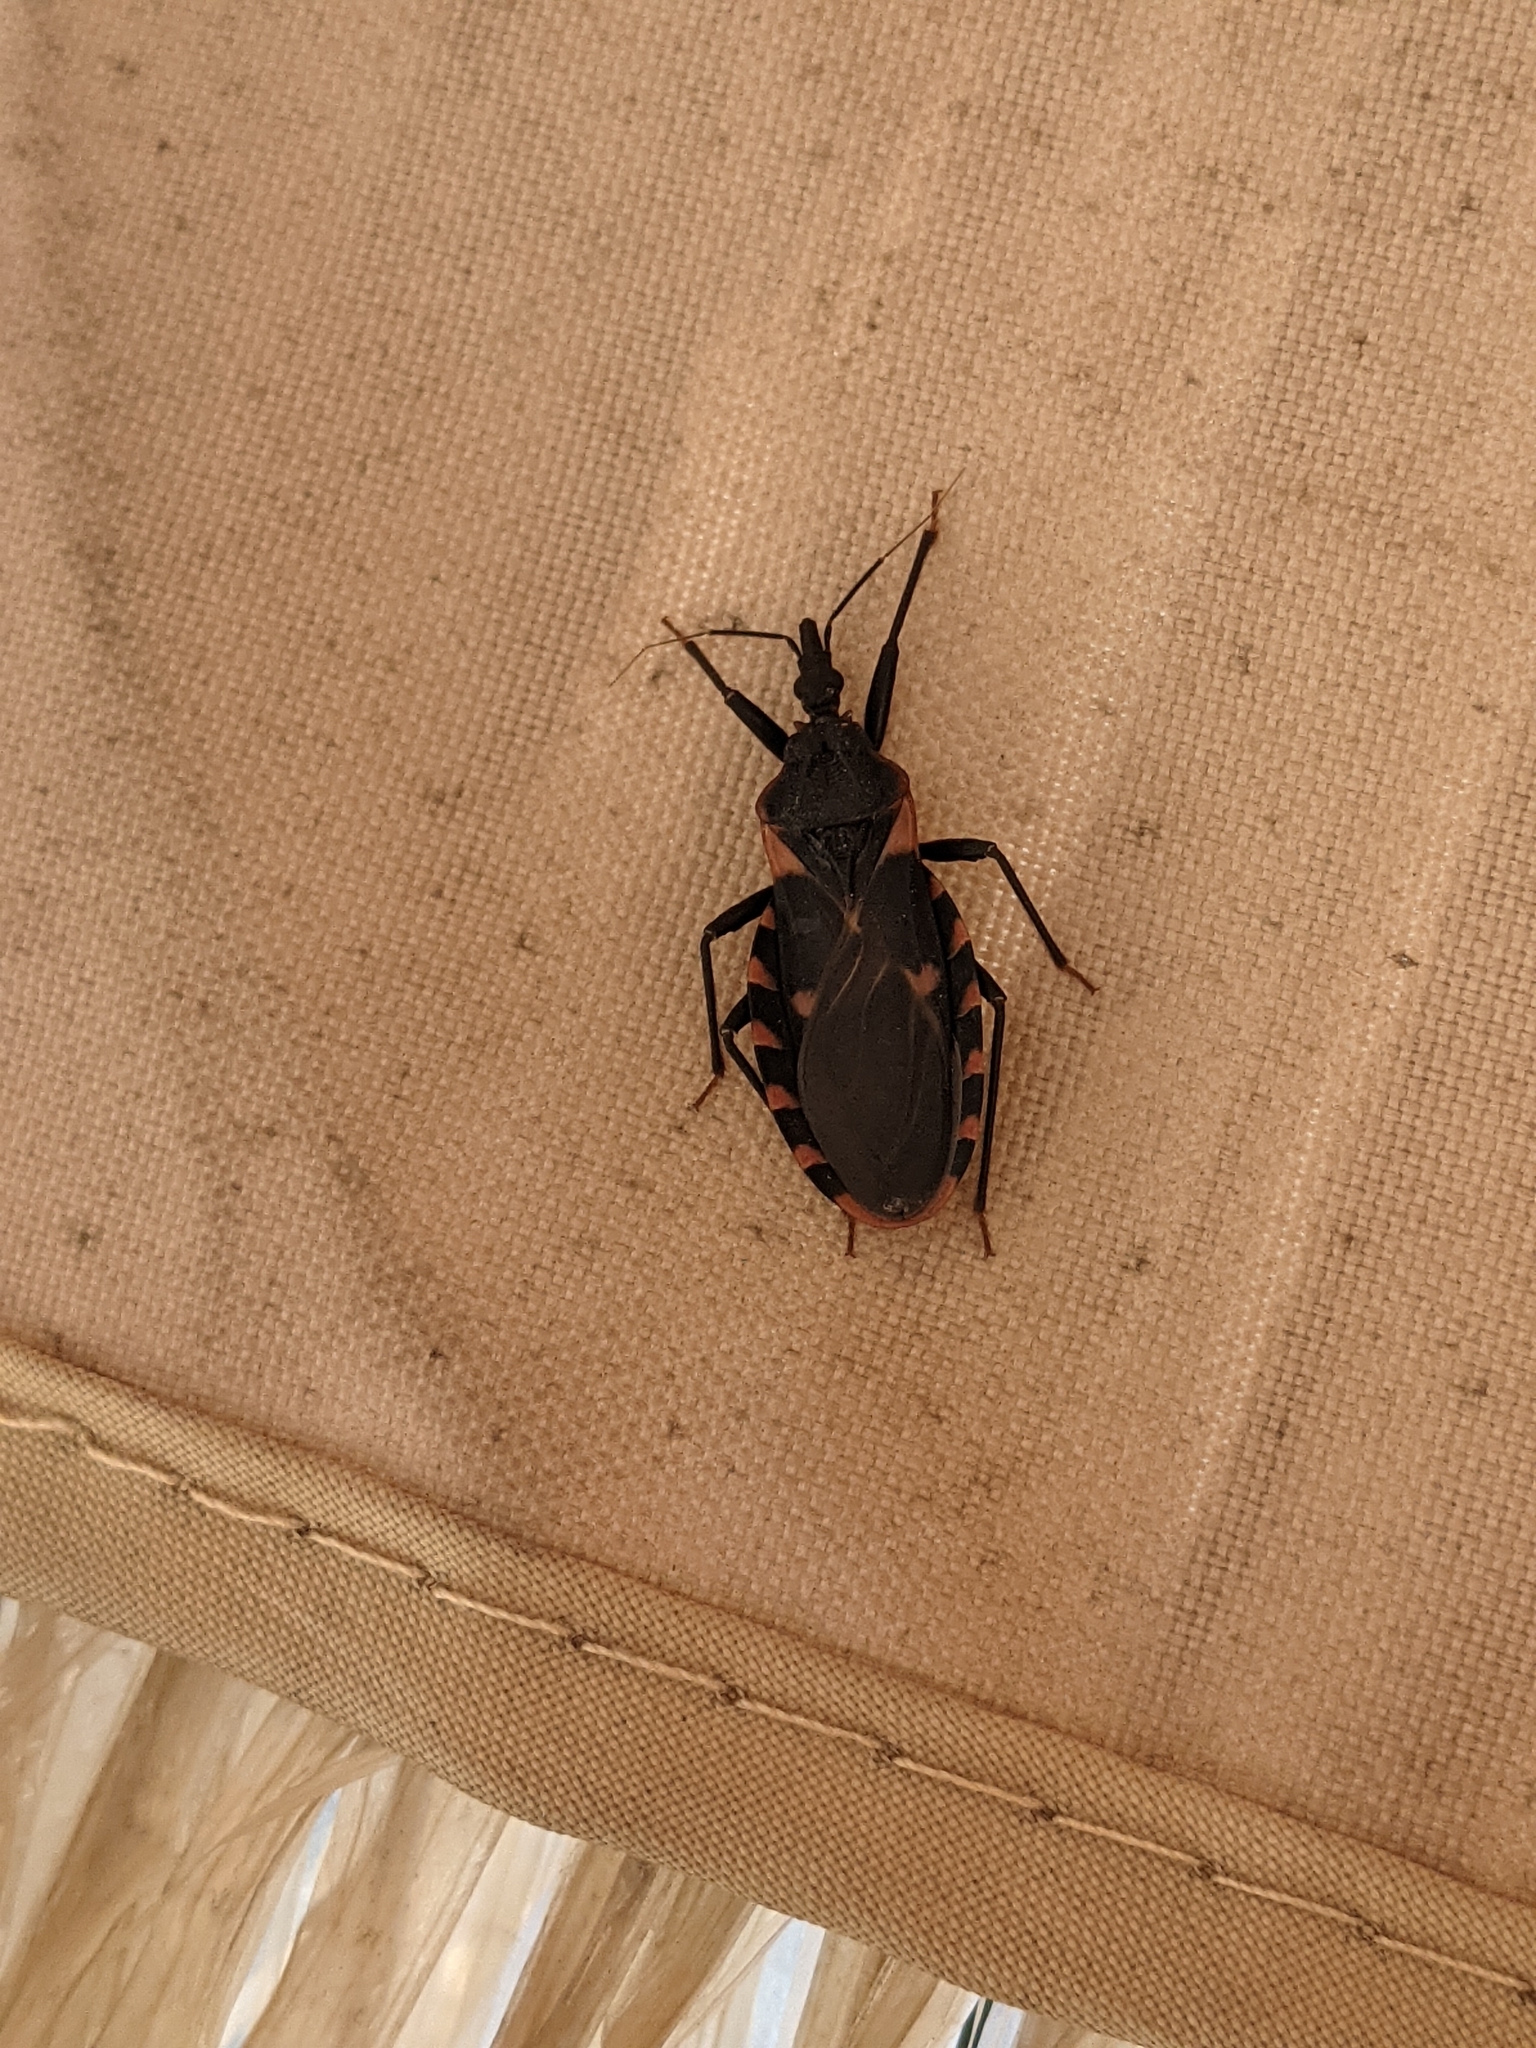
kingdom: Animalia
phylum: Arthropoda
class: Insecta
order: Hemiptera
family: Reduviidae
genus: Triatoma
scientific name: Triatoma sanguisuga
